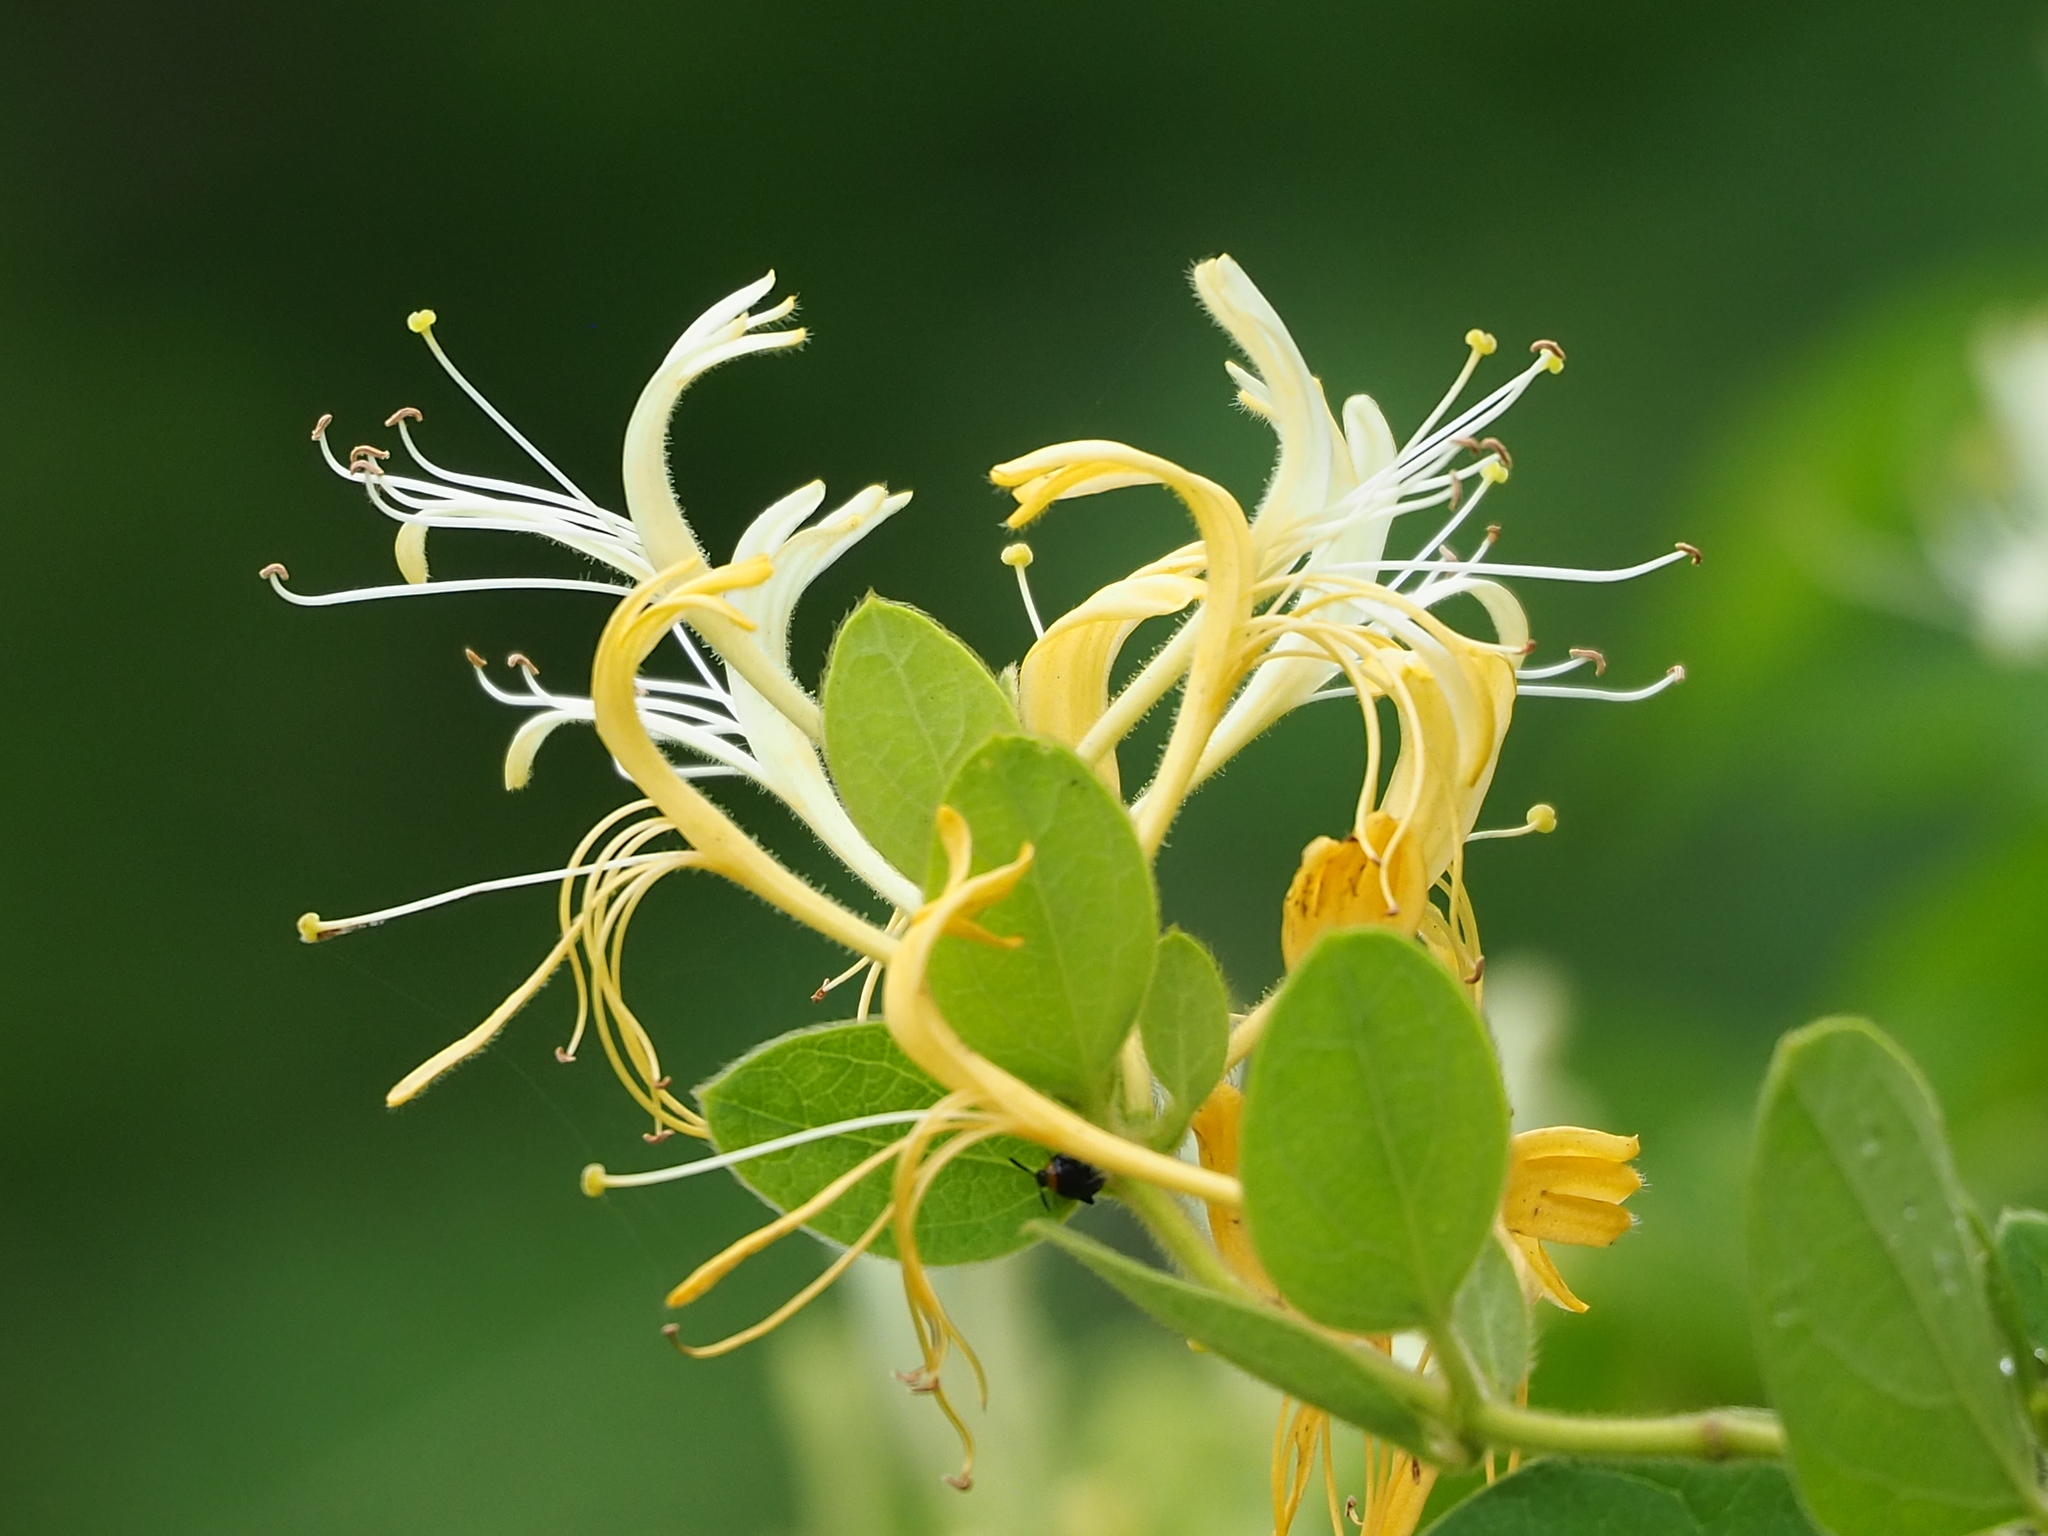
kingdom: Plantae
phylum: Tracheophyta
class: Magnoliopsida
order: Dipsacales
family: Caprifoliaceae
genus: Lonicera
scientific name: Lonicera japonica
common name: Japanese honeysuckle
